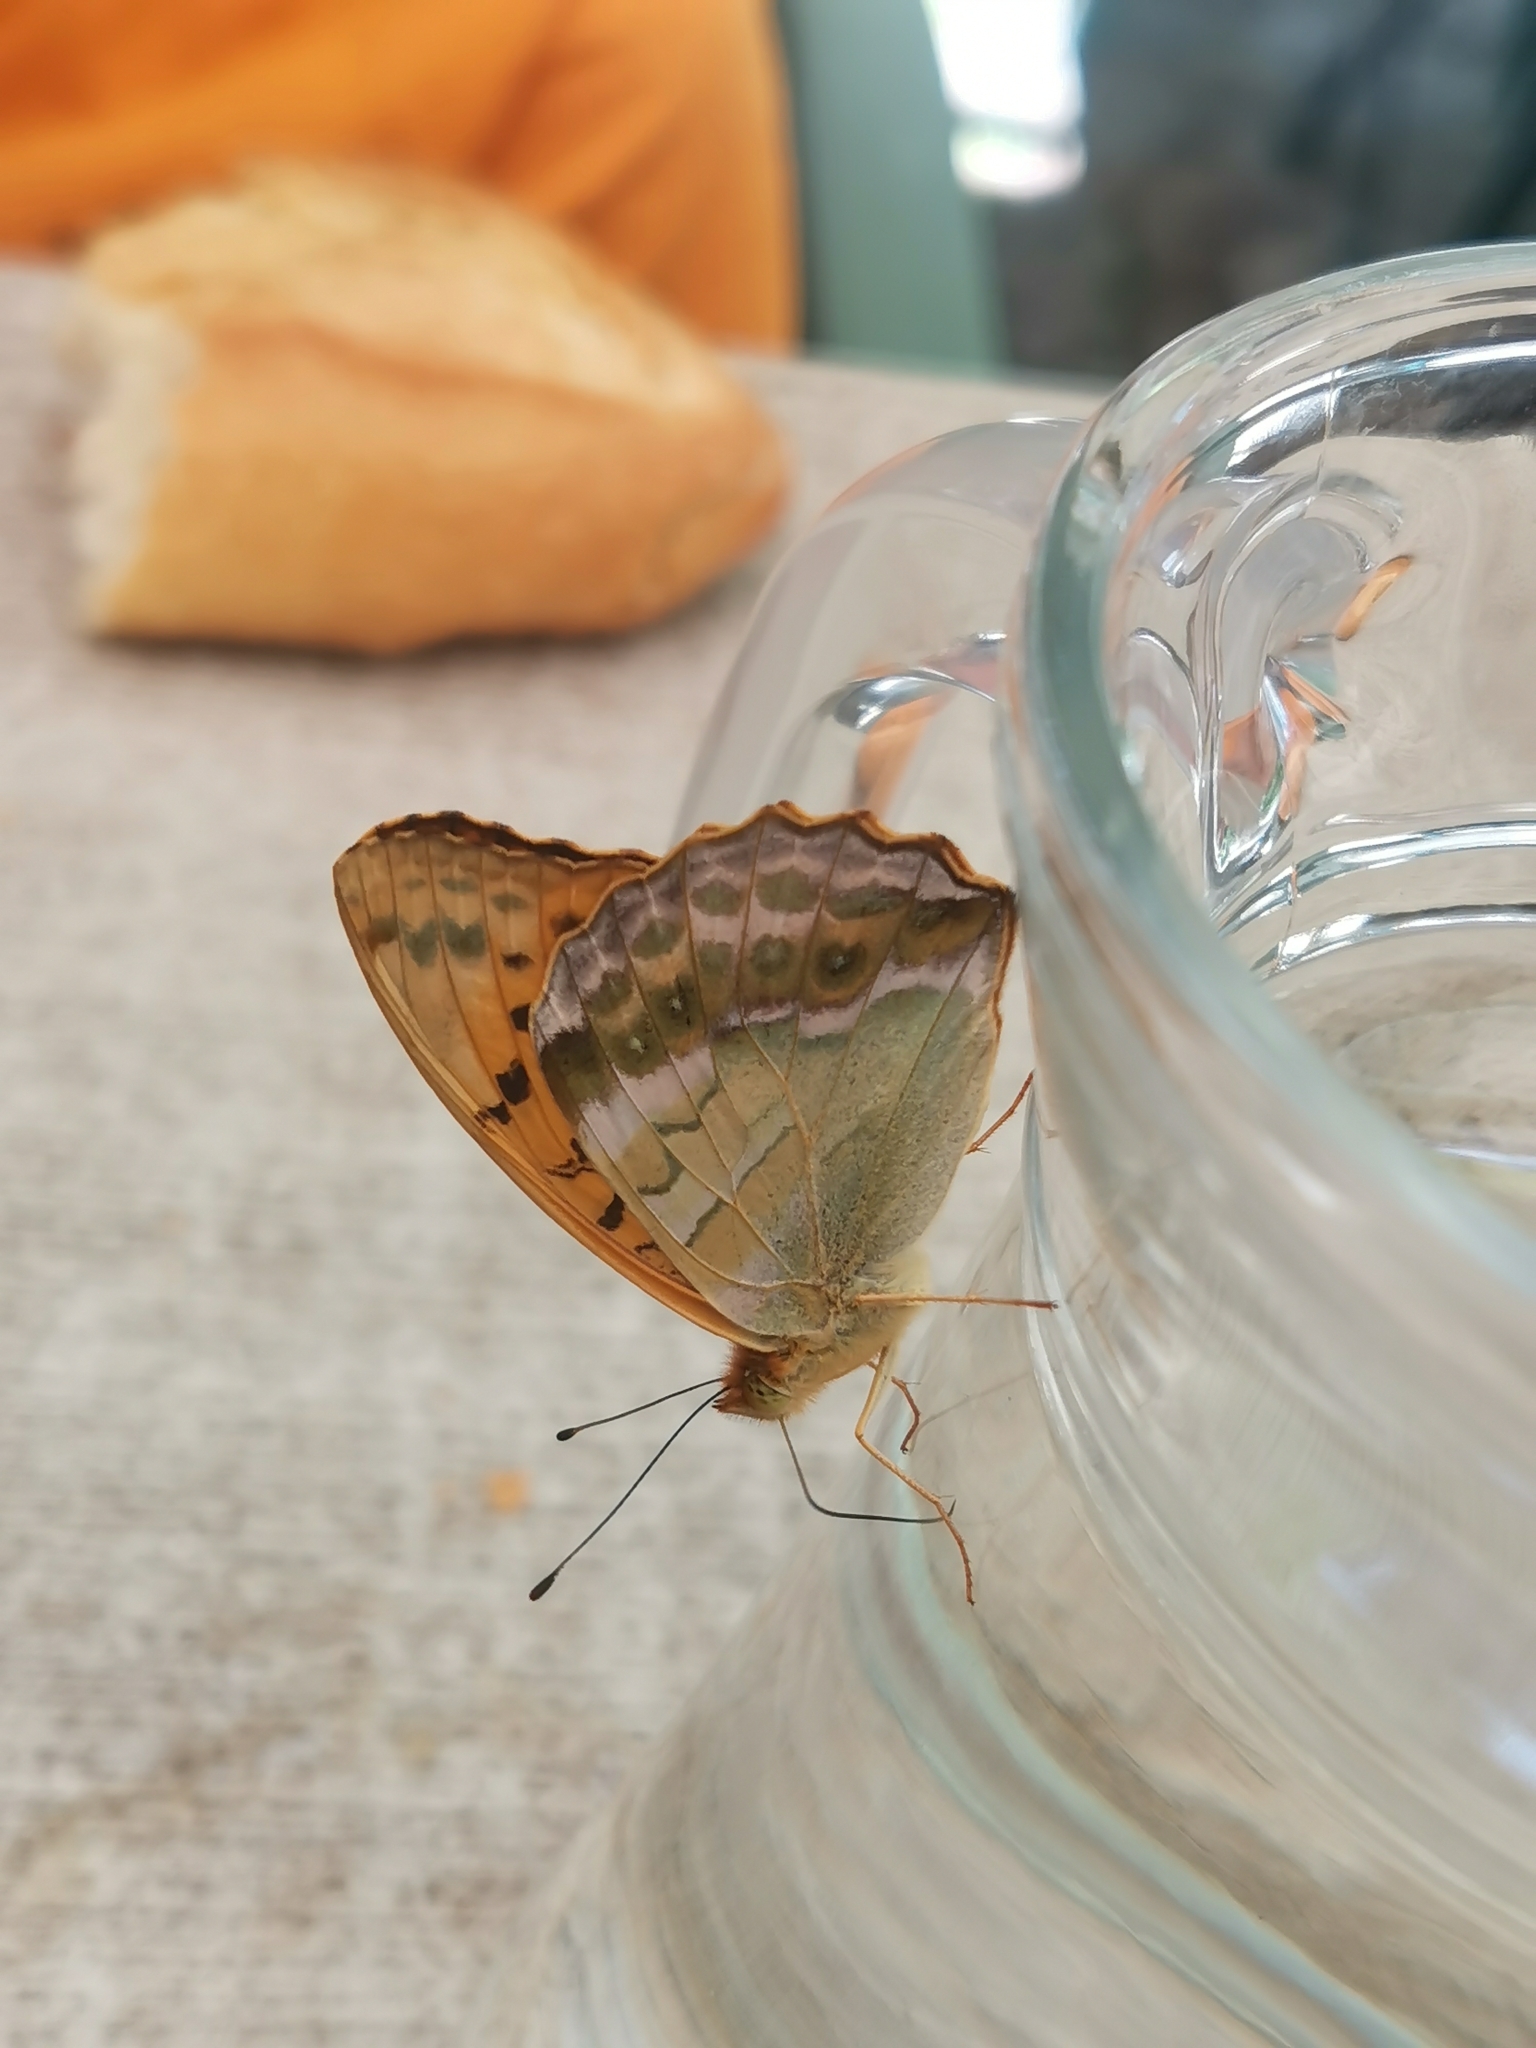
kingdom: Animalia
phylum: Arthropoda
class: Insecta
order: Lepidoptera
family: Nymphalidae
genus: Argynnis
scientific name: Argynnis paphia
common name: Silver-washed fritillary
